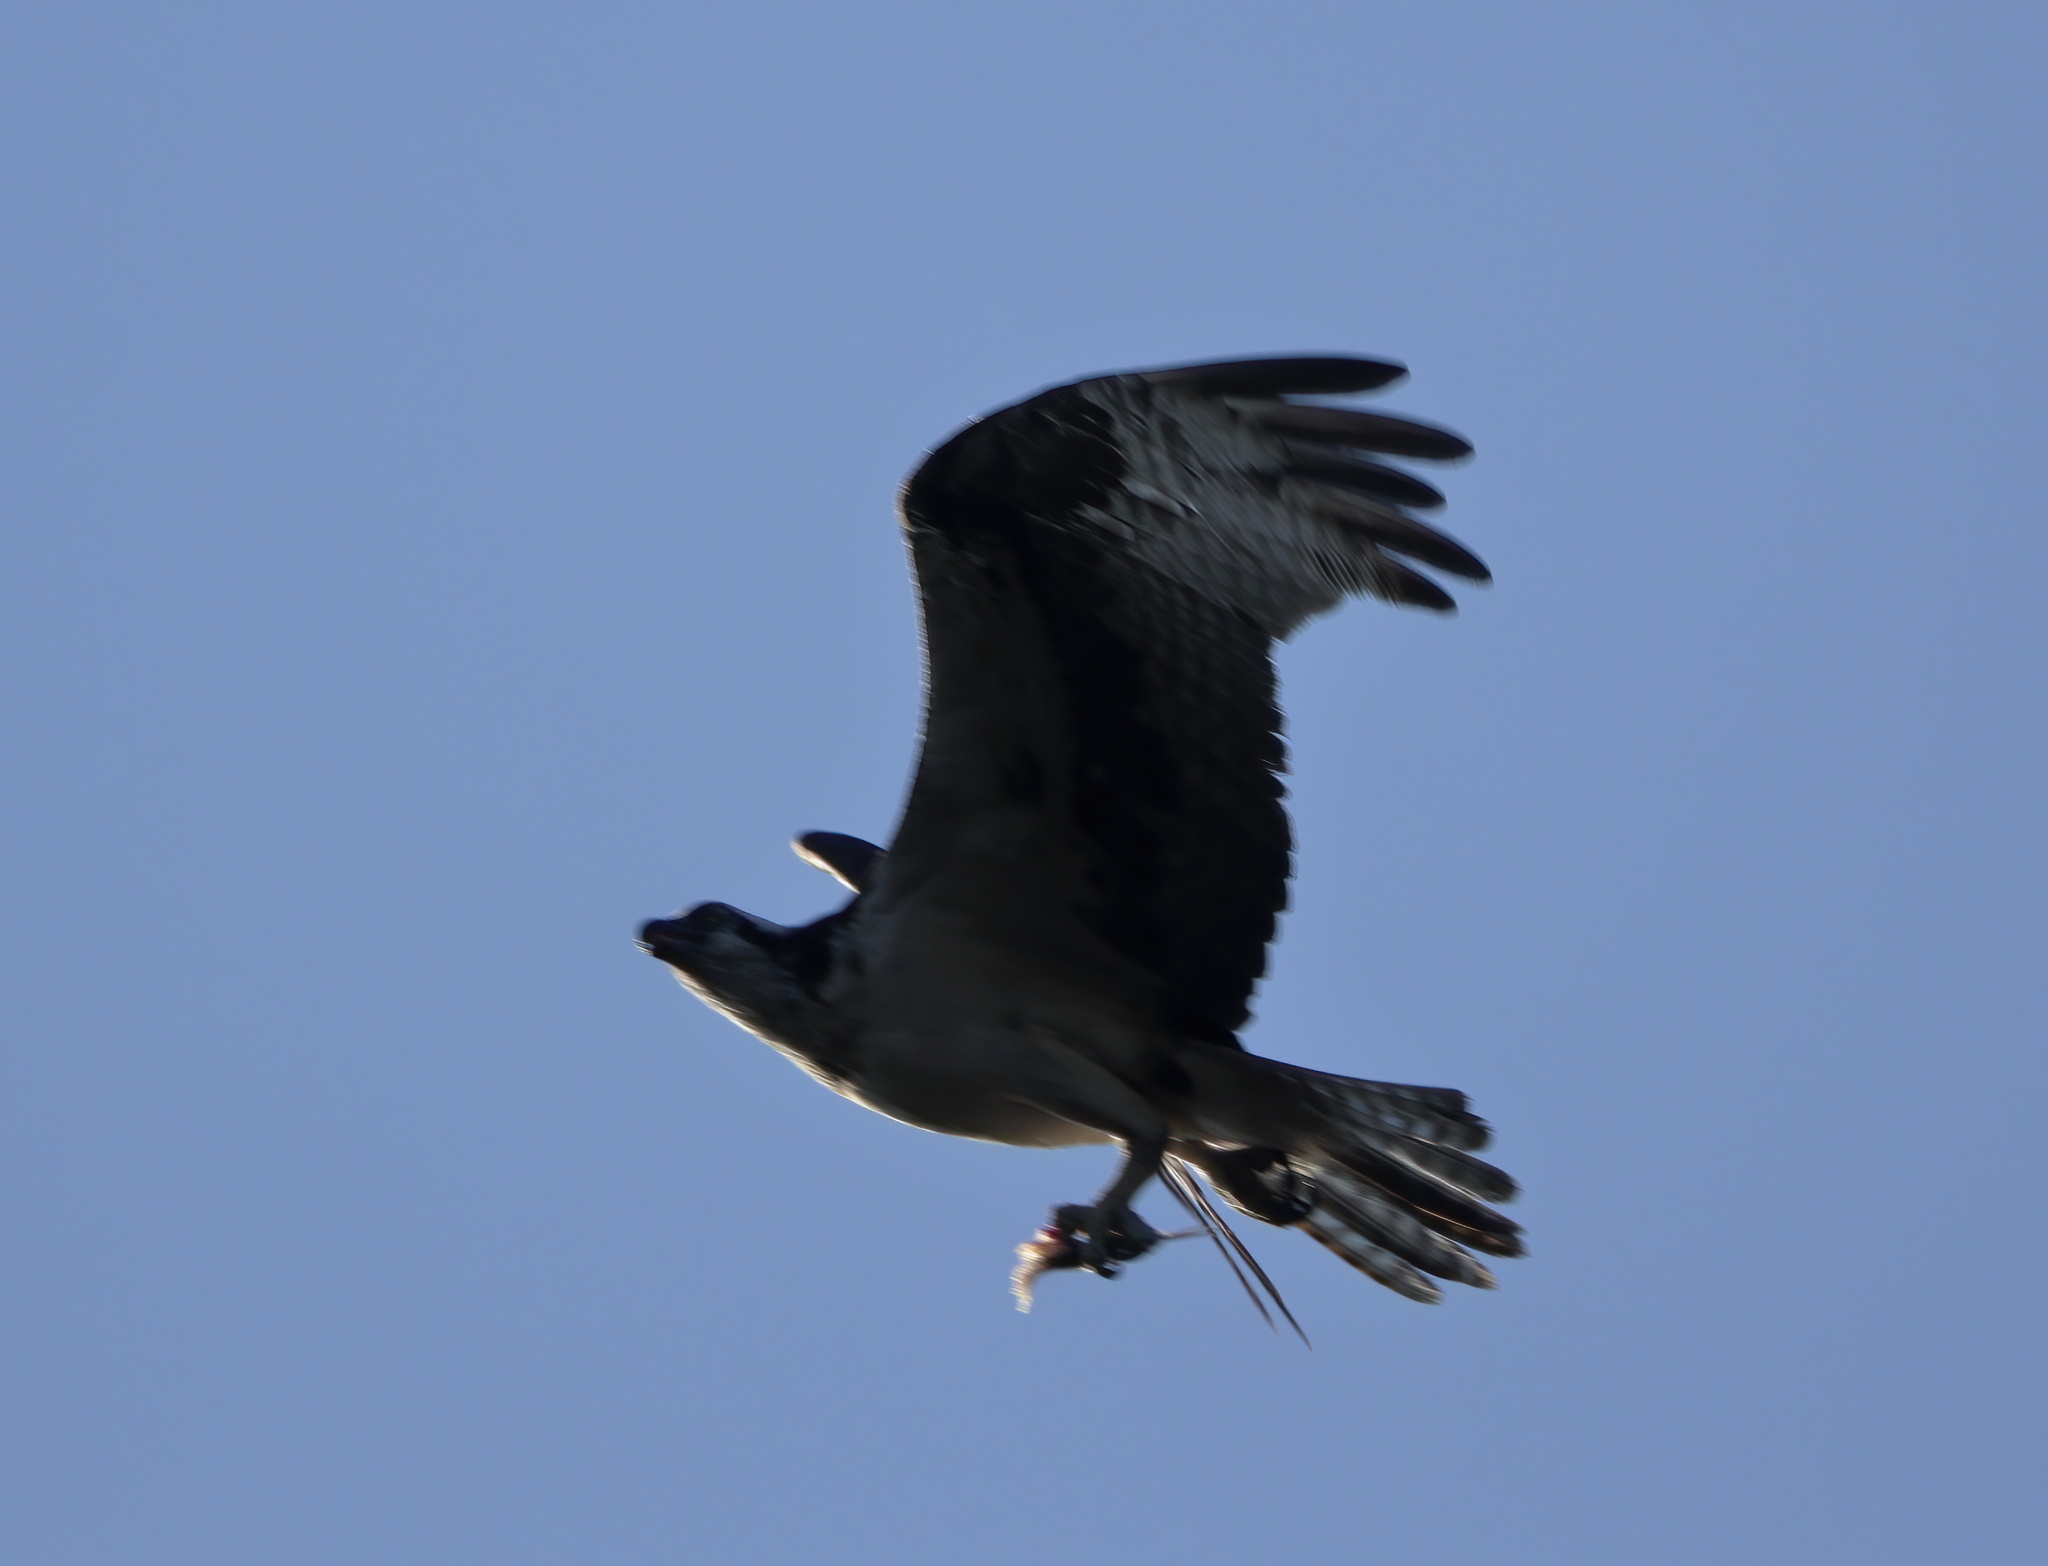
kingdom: Animalia
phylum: Chordata
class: Aves
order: Accipitriformes
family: Pandionidae
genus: Pandion
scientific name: Pandion haliaetus
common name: Osprey
